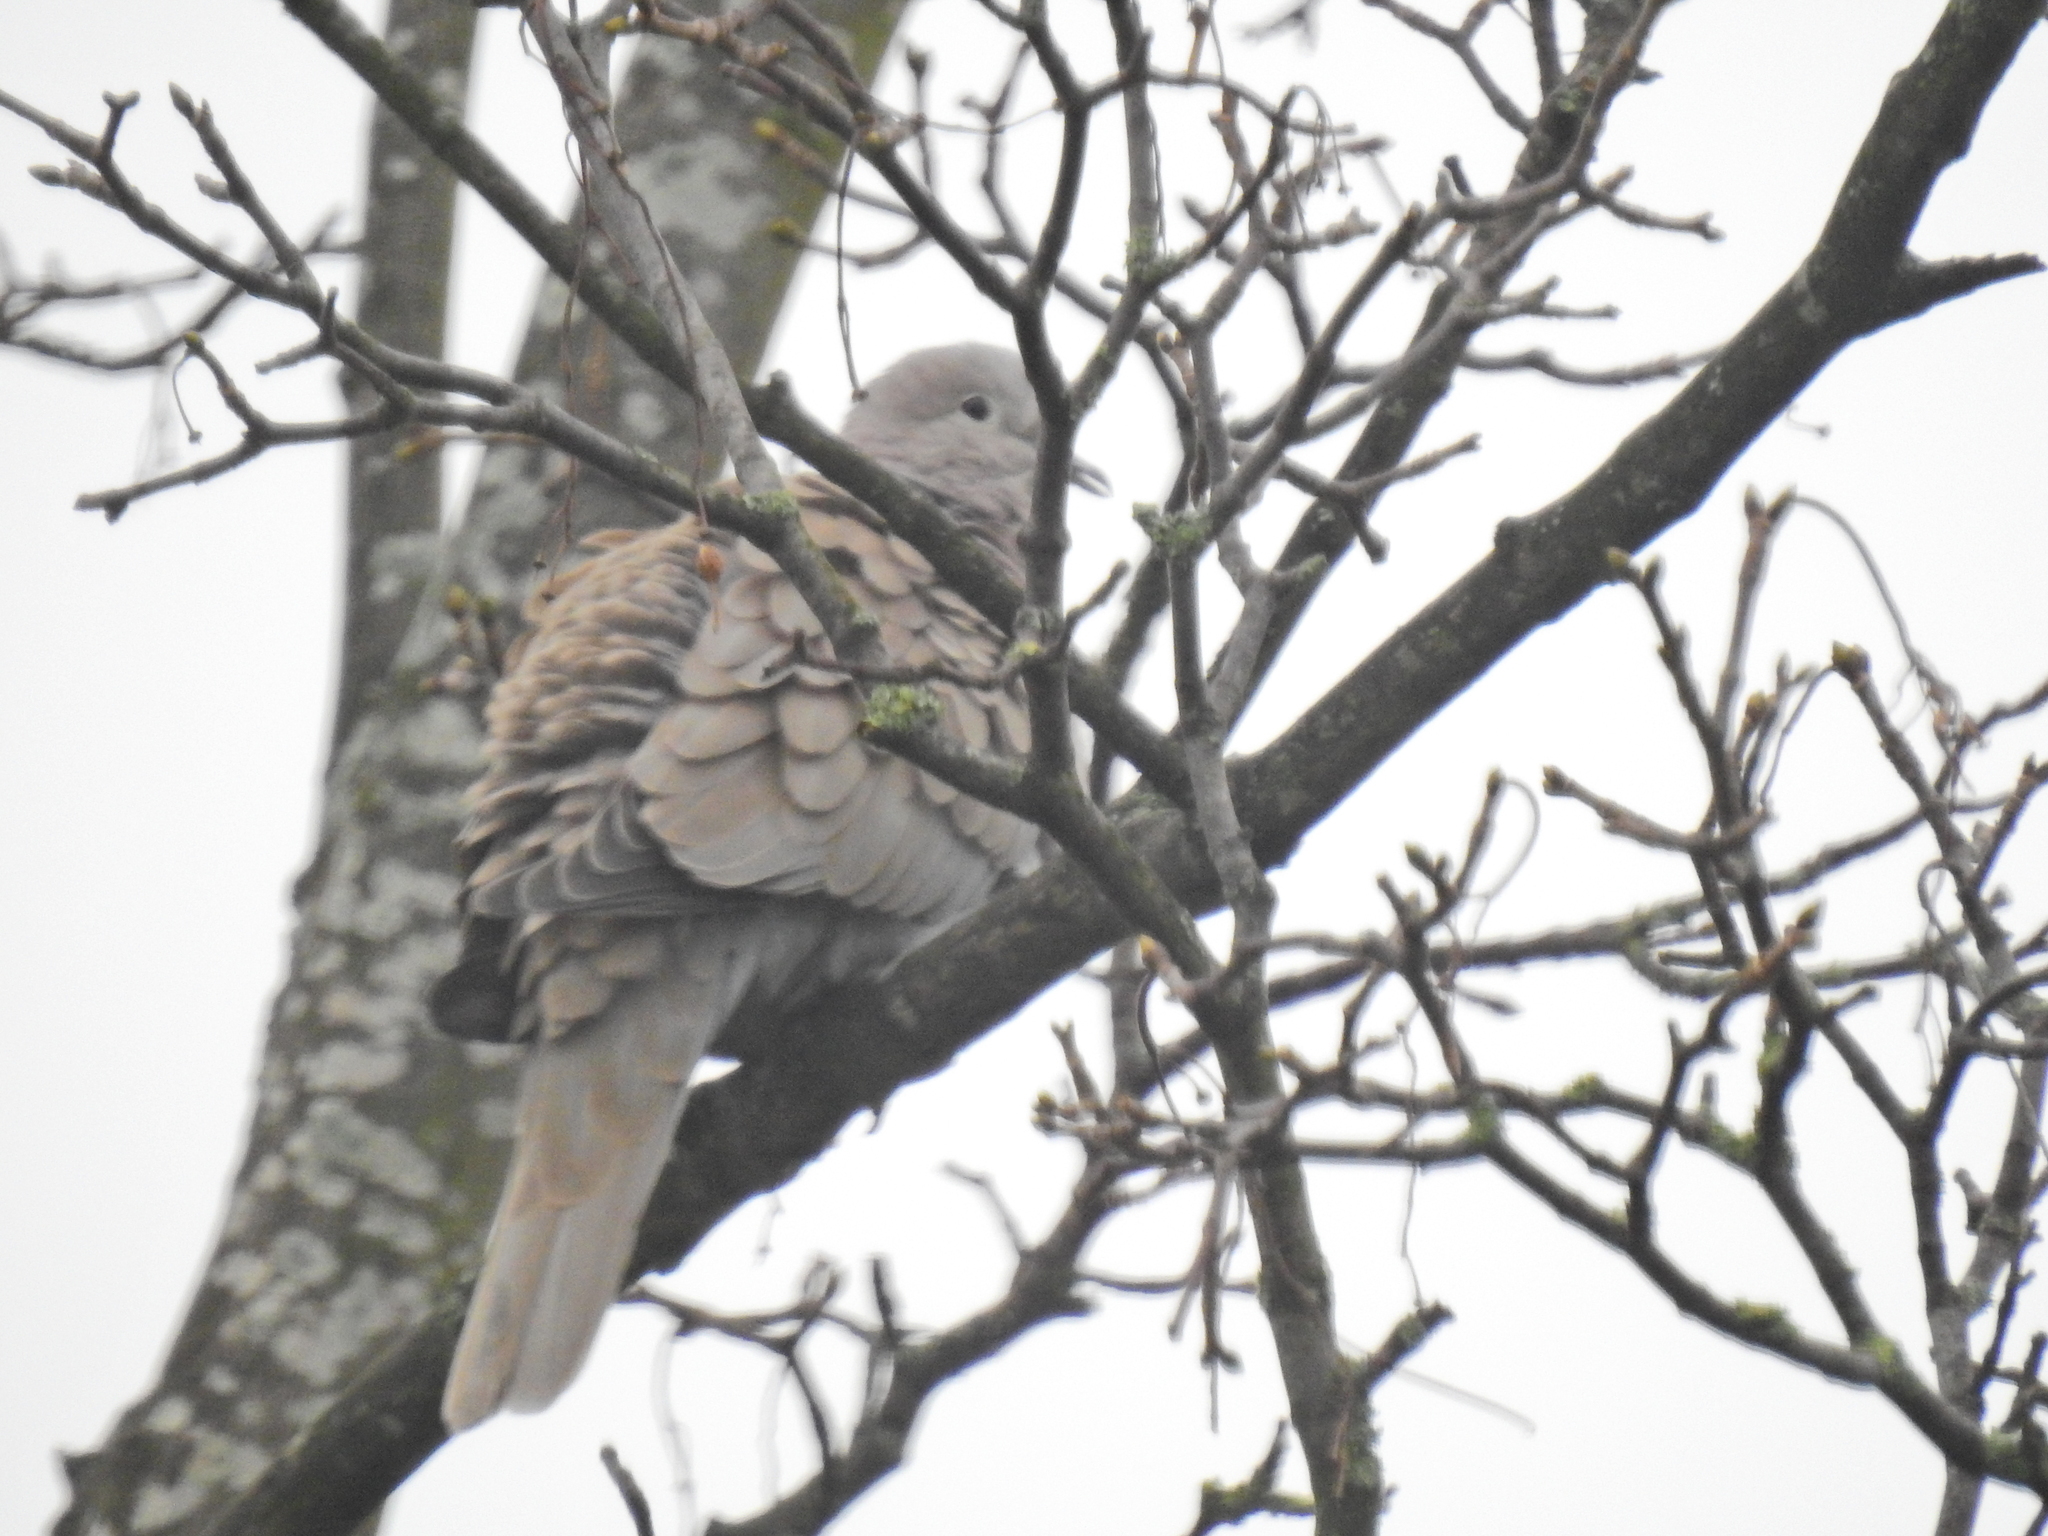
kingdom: Animalia
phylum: Chordata
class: Aves
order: Columbiformes
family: Columbidae
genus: Streptopelia
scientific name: Streptopelia decaocto
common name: Eurasian collared dove
